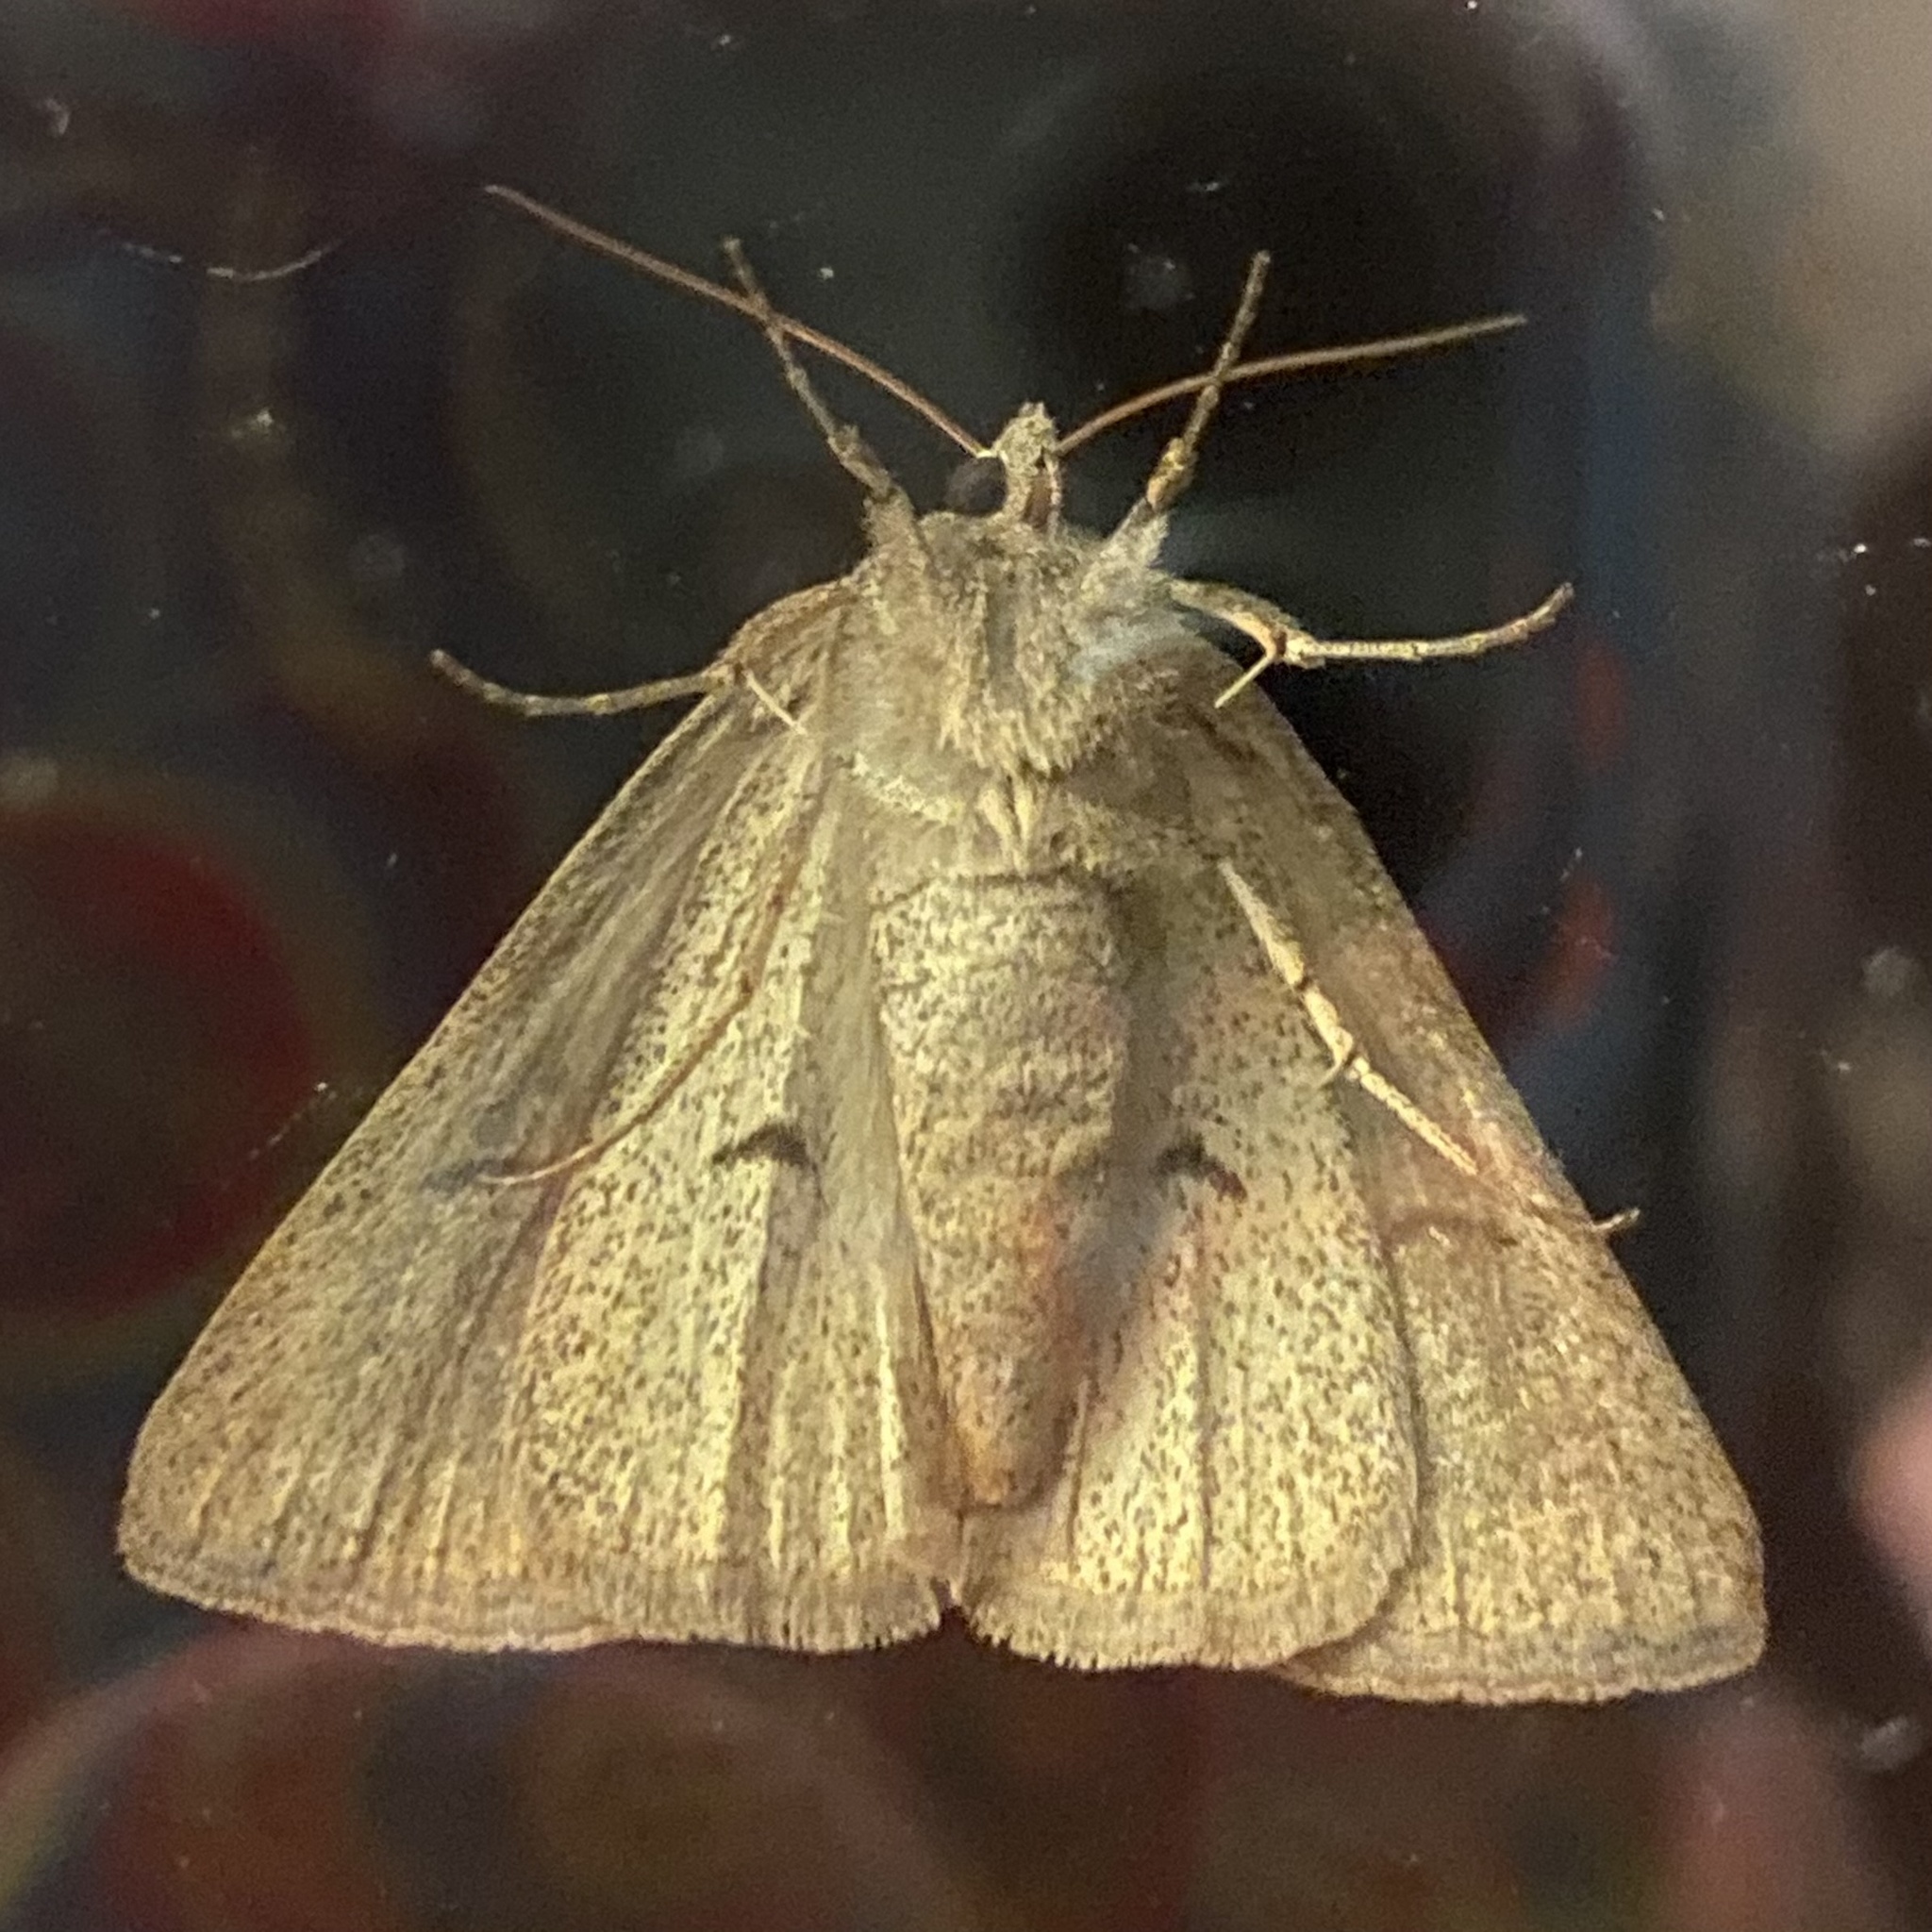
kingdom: Animalia
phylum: Arthropoda
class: Insecta
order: Lepidoptera
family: Erebidae
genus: Phoberia
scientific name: Phoberia atomaris
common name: Common oak moth
